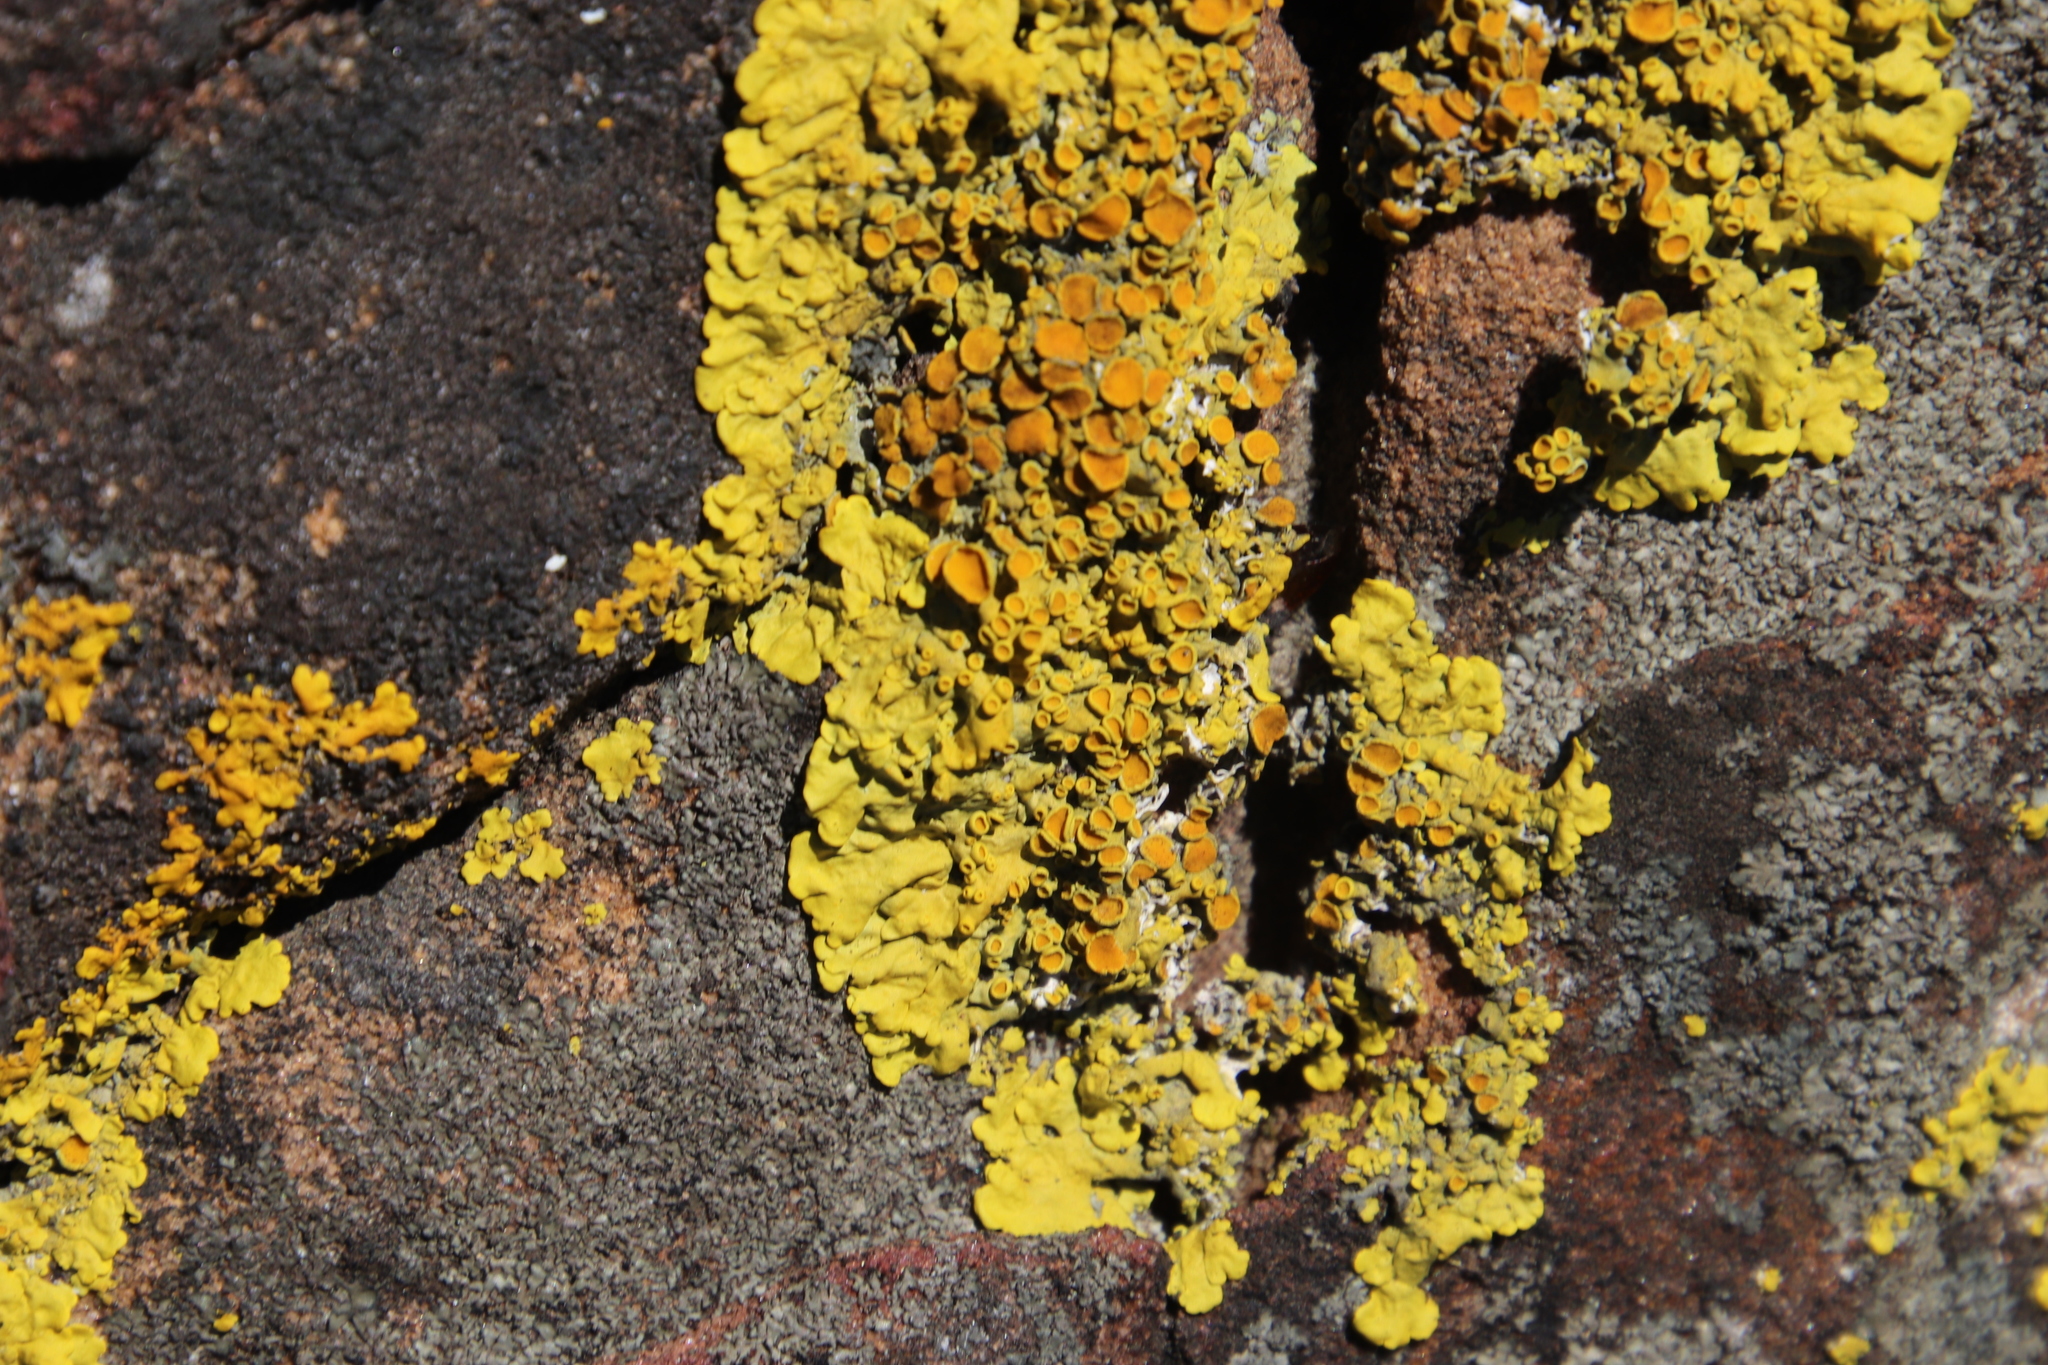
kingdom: Fungi
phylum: Ascomycota
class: Lecanoromycetes
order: Teloschistales
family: Teloschistaceae
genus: Xanthoria
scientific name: Xanthoria parietina
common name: Common orange lichen
